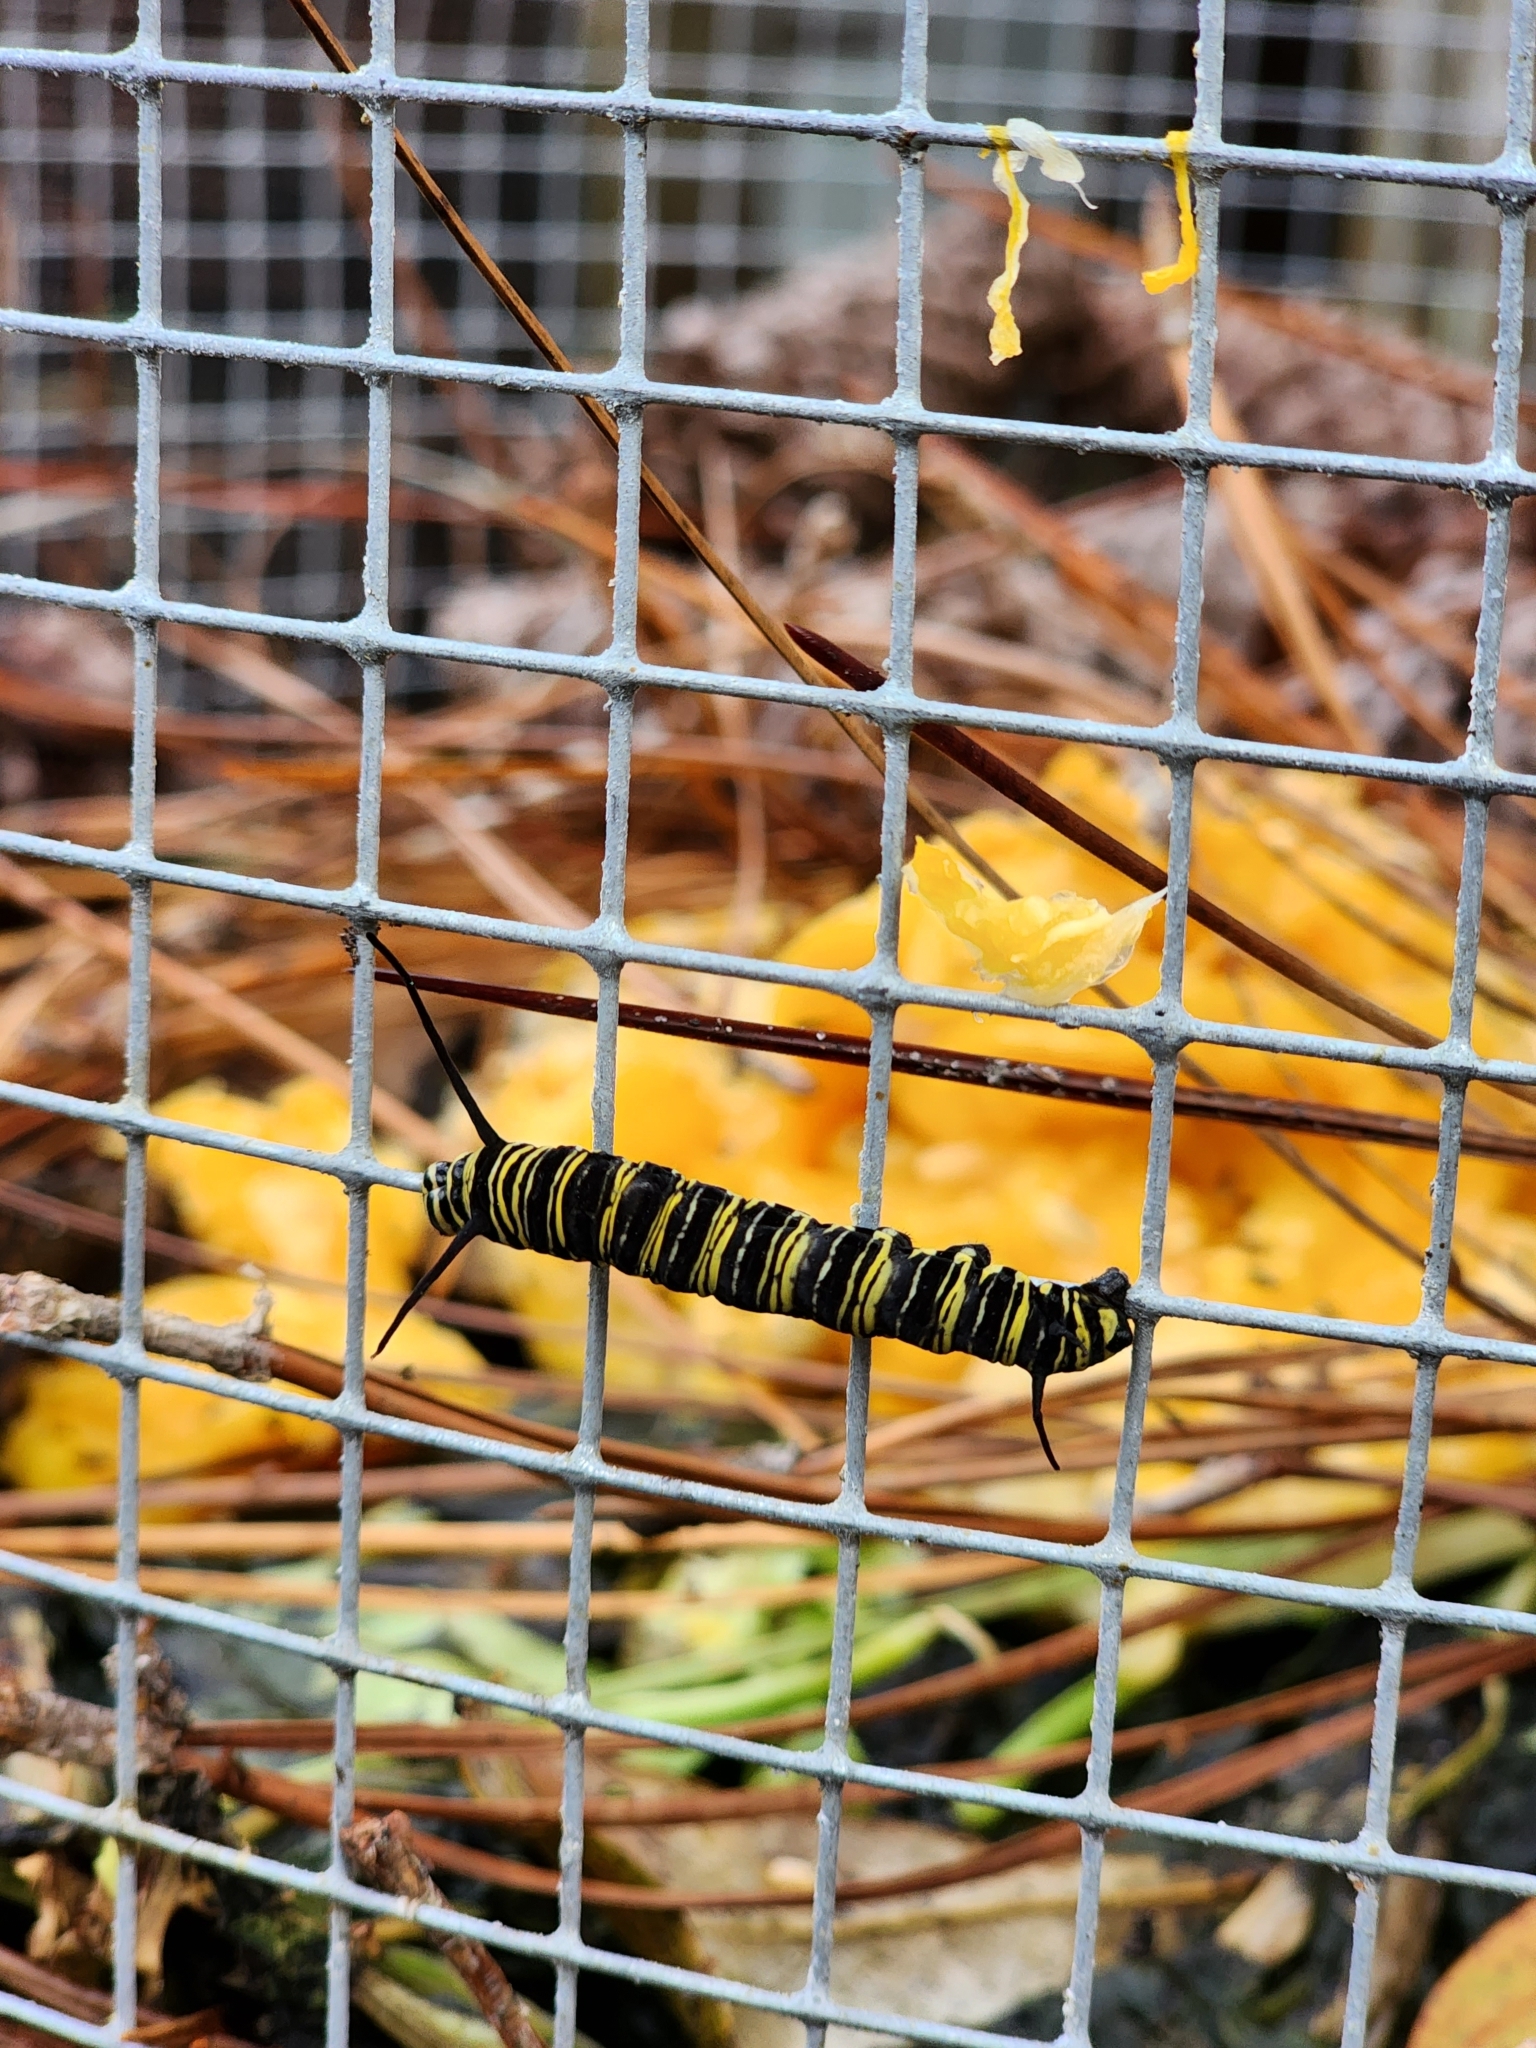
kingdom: Animalia
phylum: Arthropoda
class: Insecta
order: Lepidoptera
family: Nymphalidae
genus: Danaus
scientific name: Danaus plexippus
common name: Monarch
